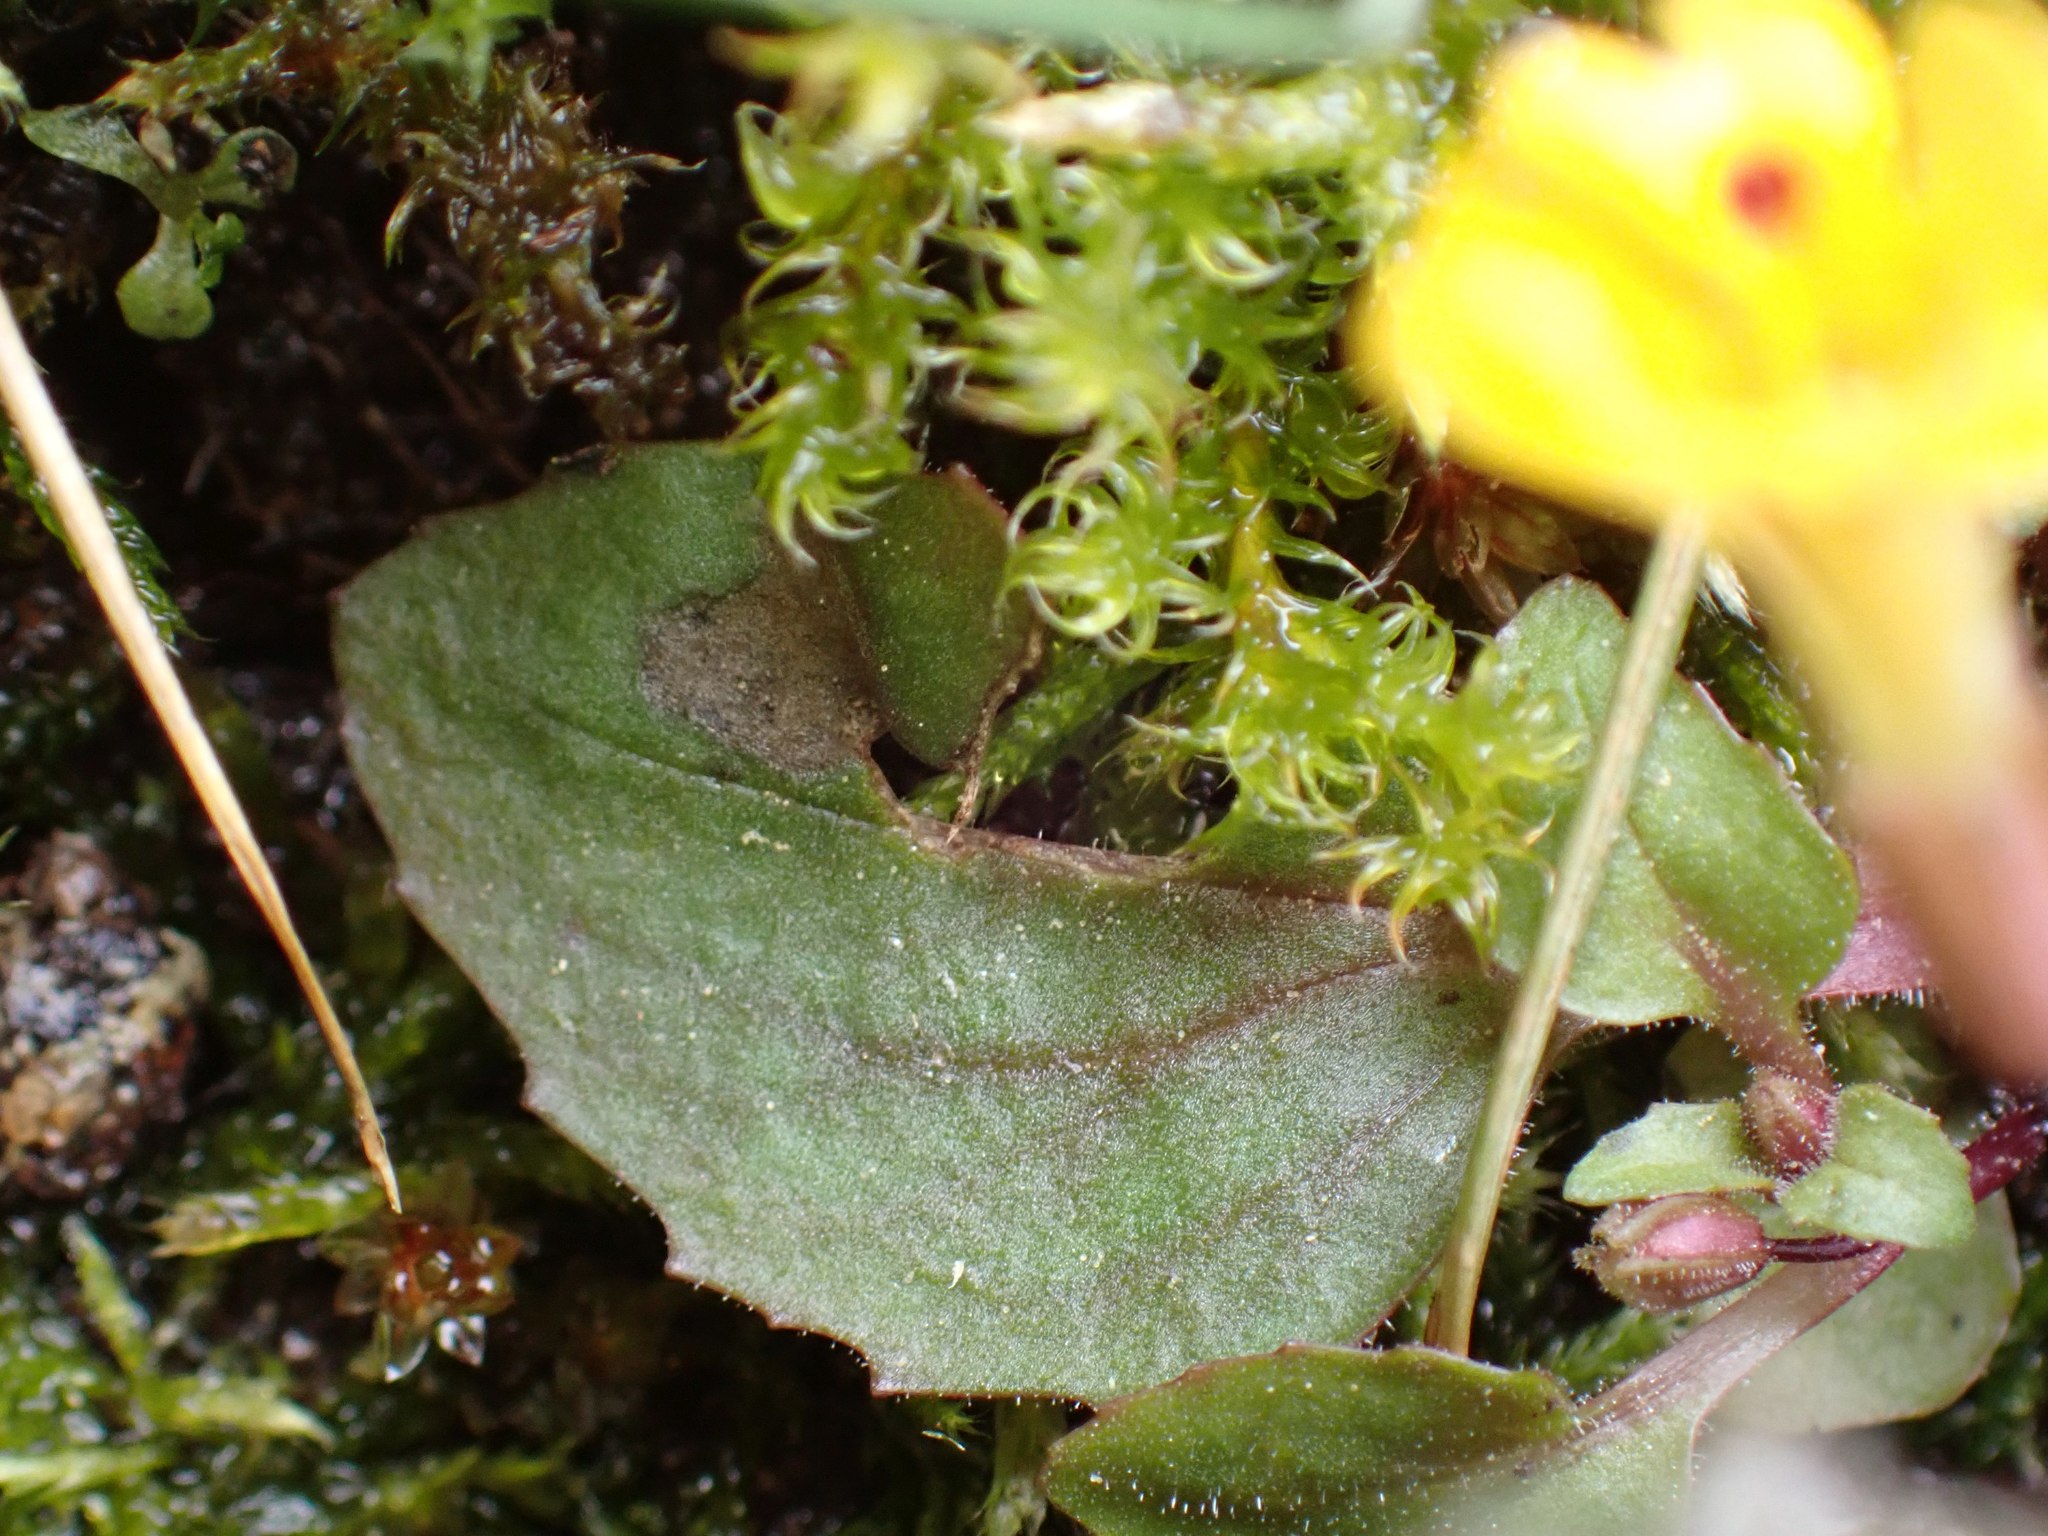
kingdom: Plantae
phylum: Tracheophyta
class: Magnoliopsida
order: Lamiales
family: Phrymaceae
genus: Erythranthe
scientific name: Erythranthe alsinoides
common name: Chickweed monkeyflower
